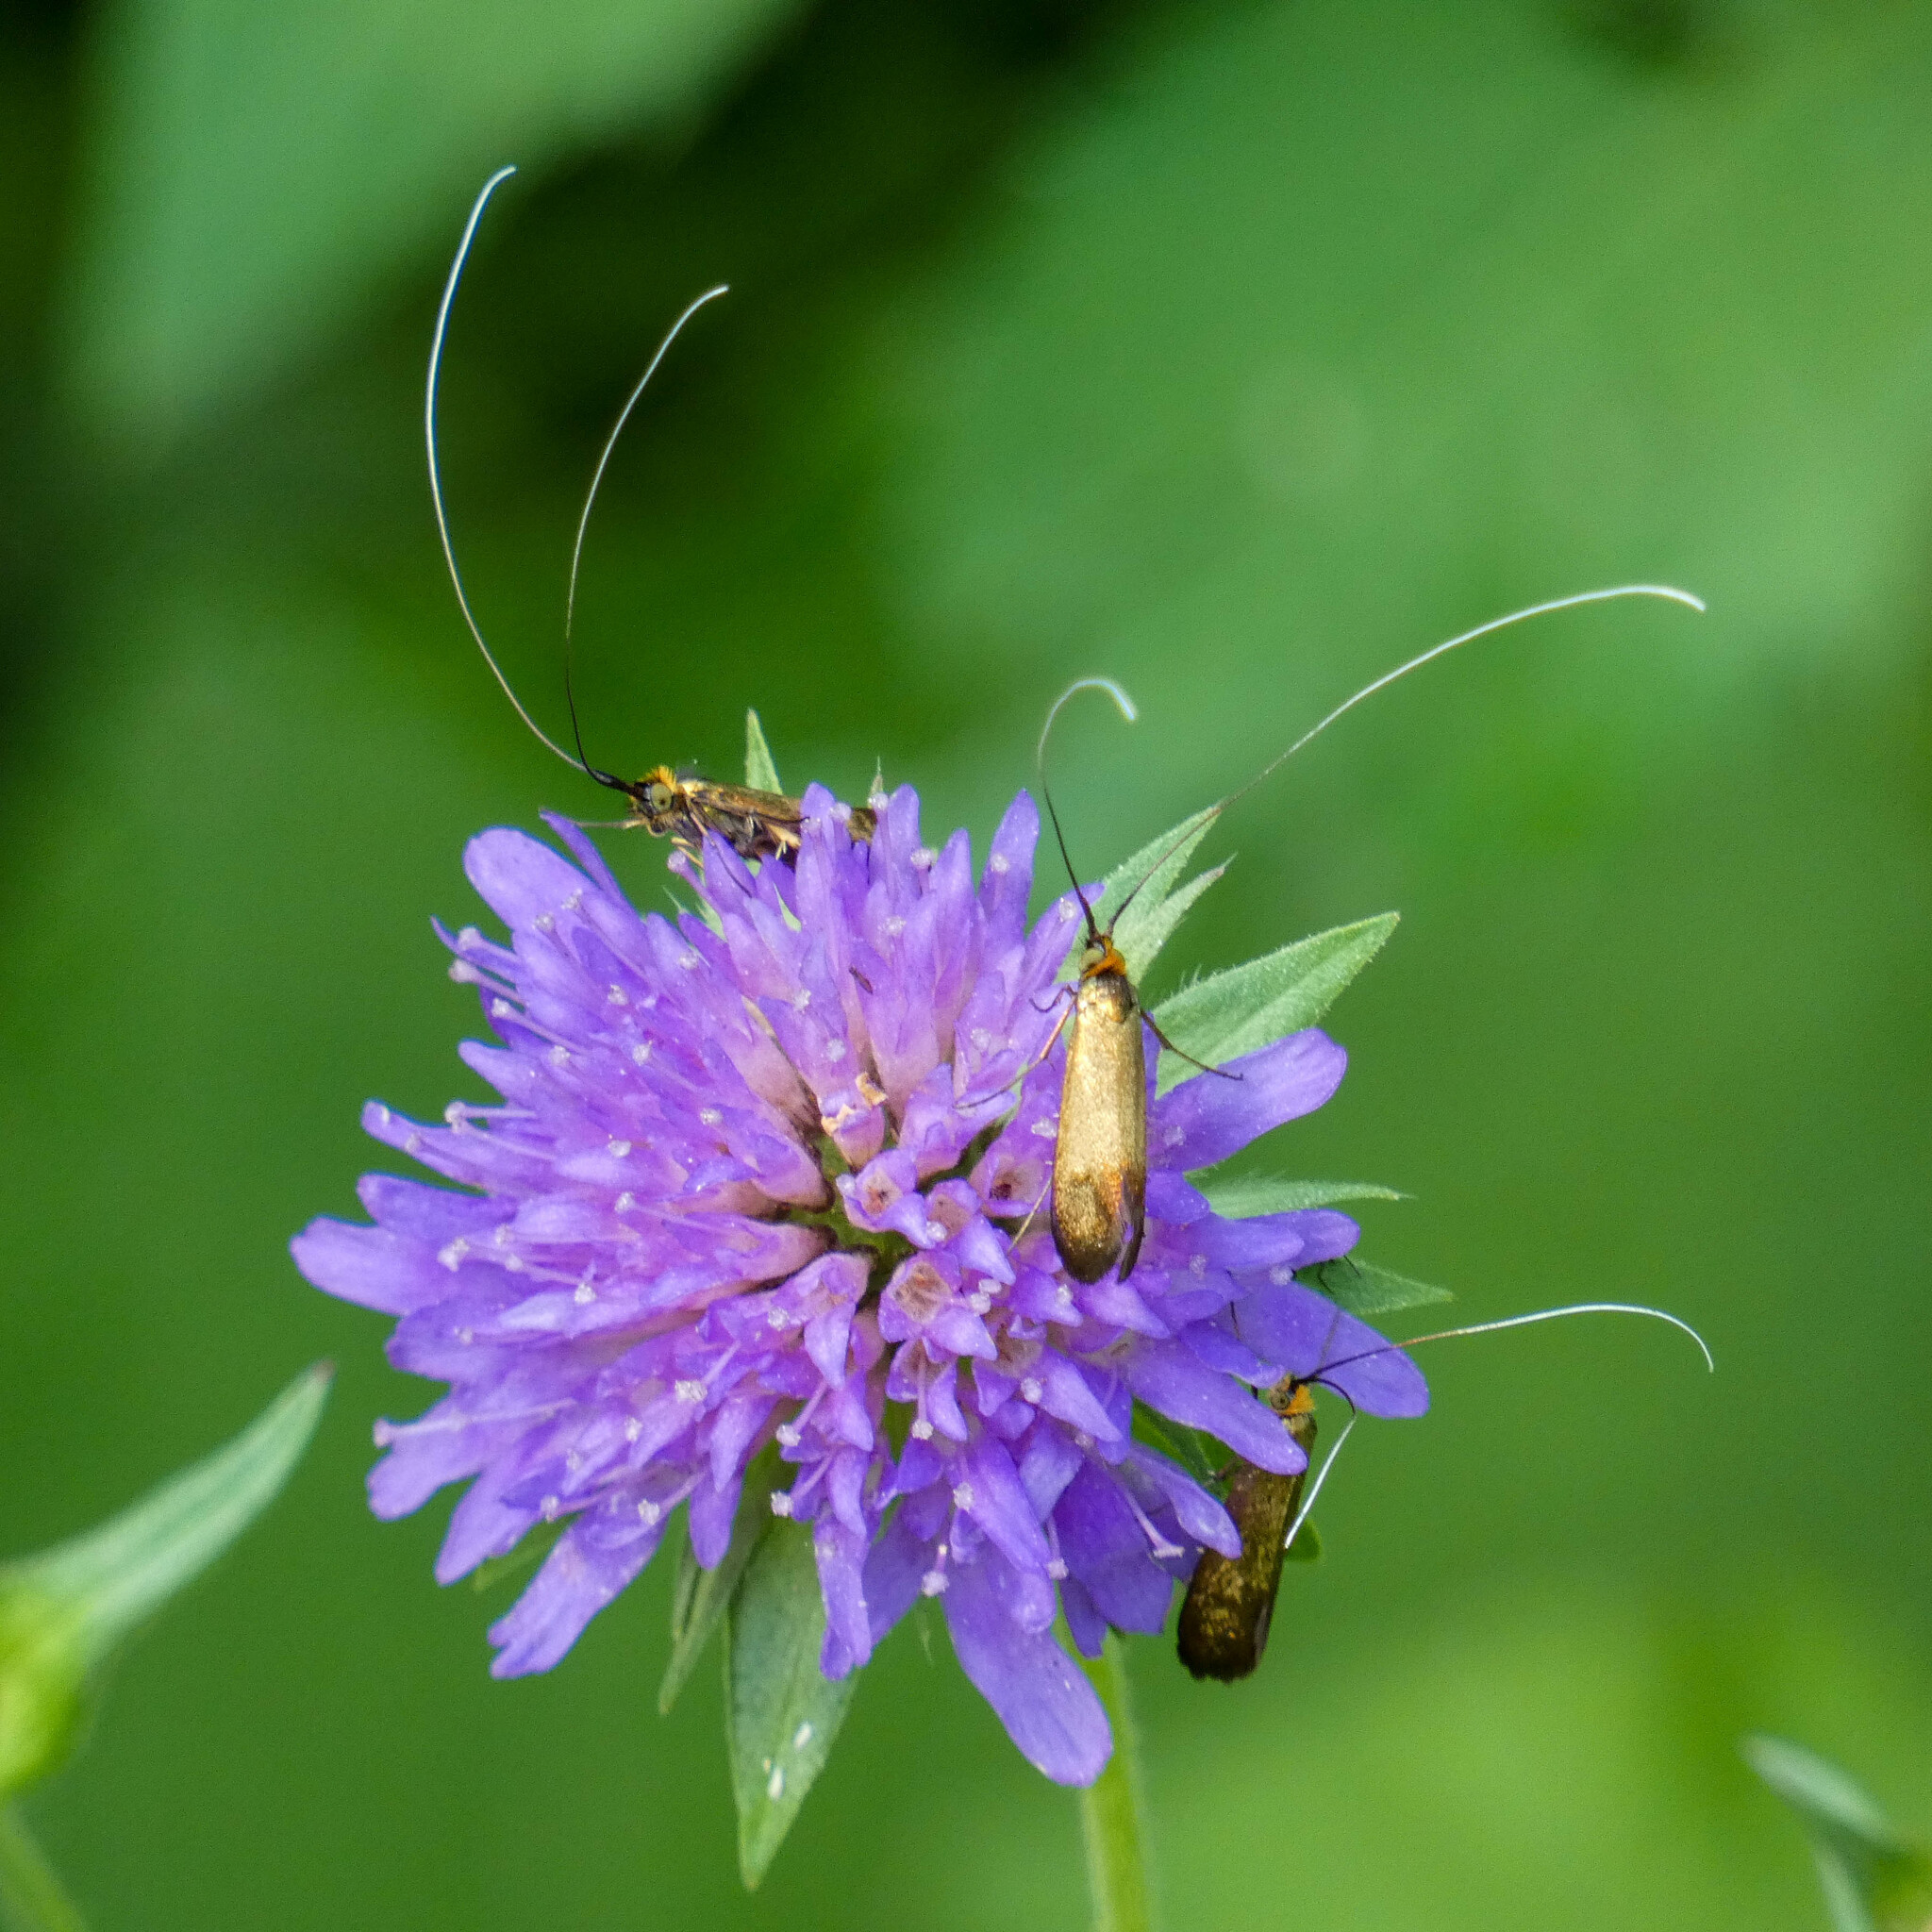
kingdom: Animalia
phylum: Arthropoda
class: Insecta
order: Lepidoptera
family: Adelidae
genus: Nemophora
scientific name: Nemophora metallica
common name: Brassy long-horn
